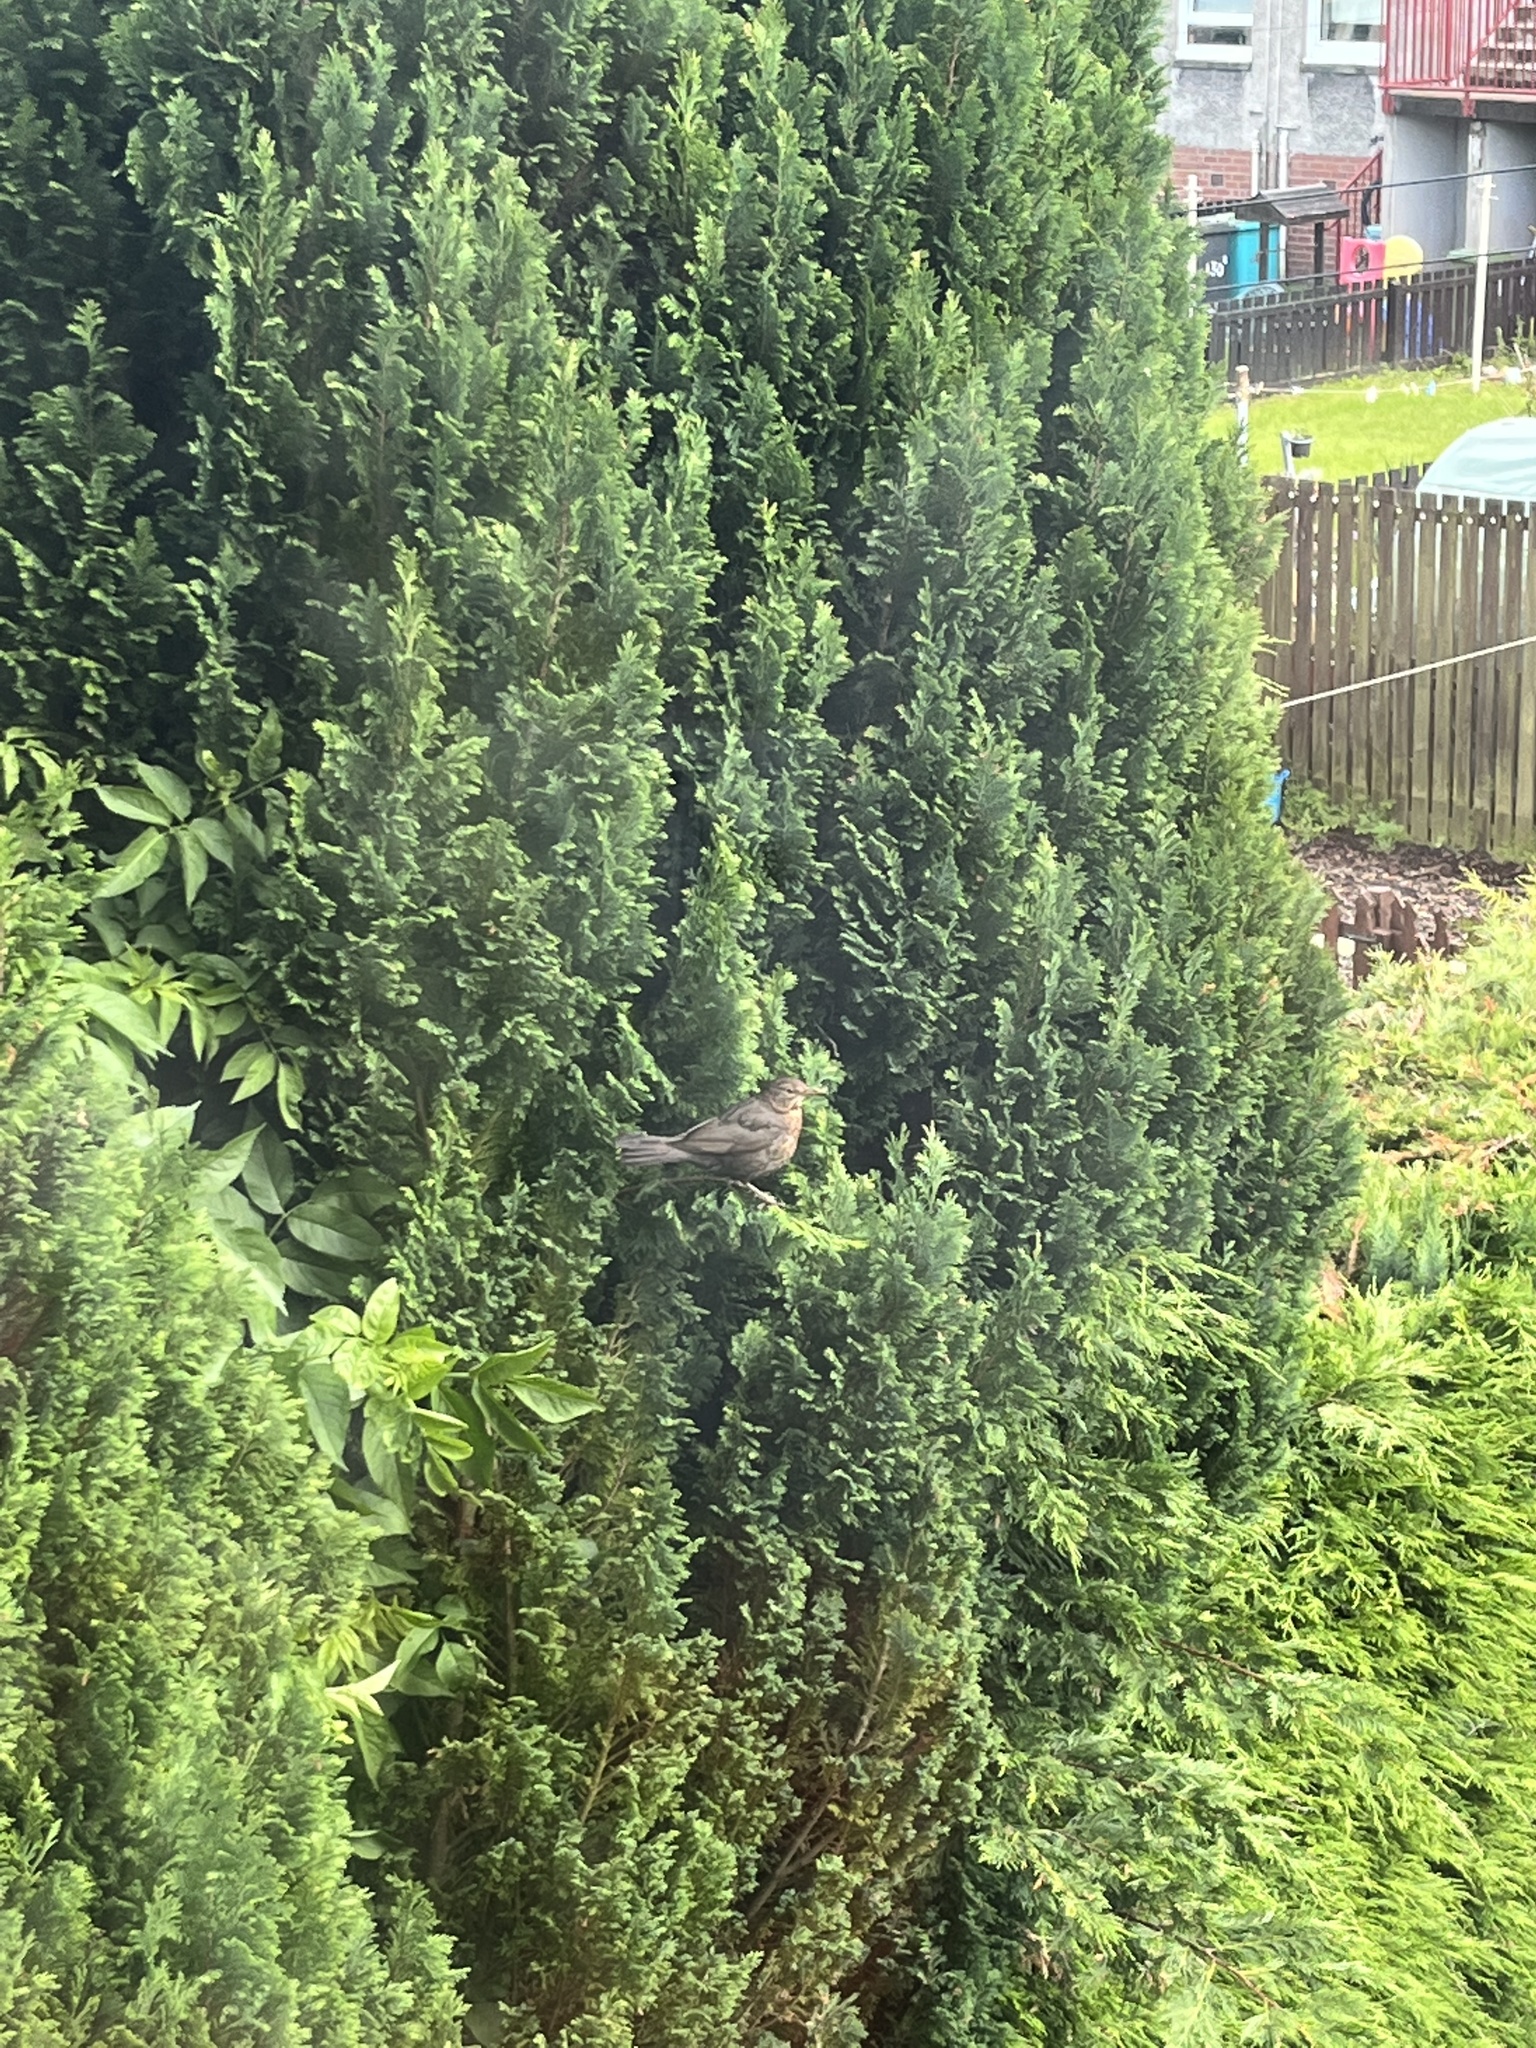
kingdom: Animalia
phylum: Chordata
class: Aves
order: Passeriformes
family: Turdidae
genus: Turdus
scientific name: Turdus merula
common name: Common blackbird
